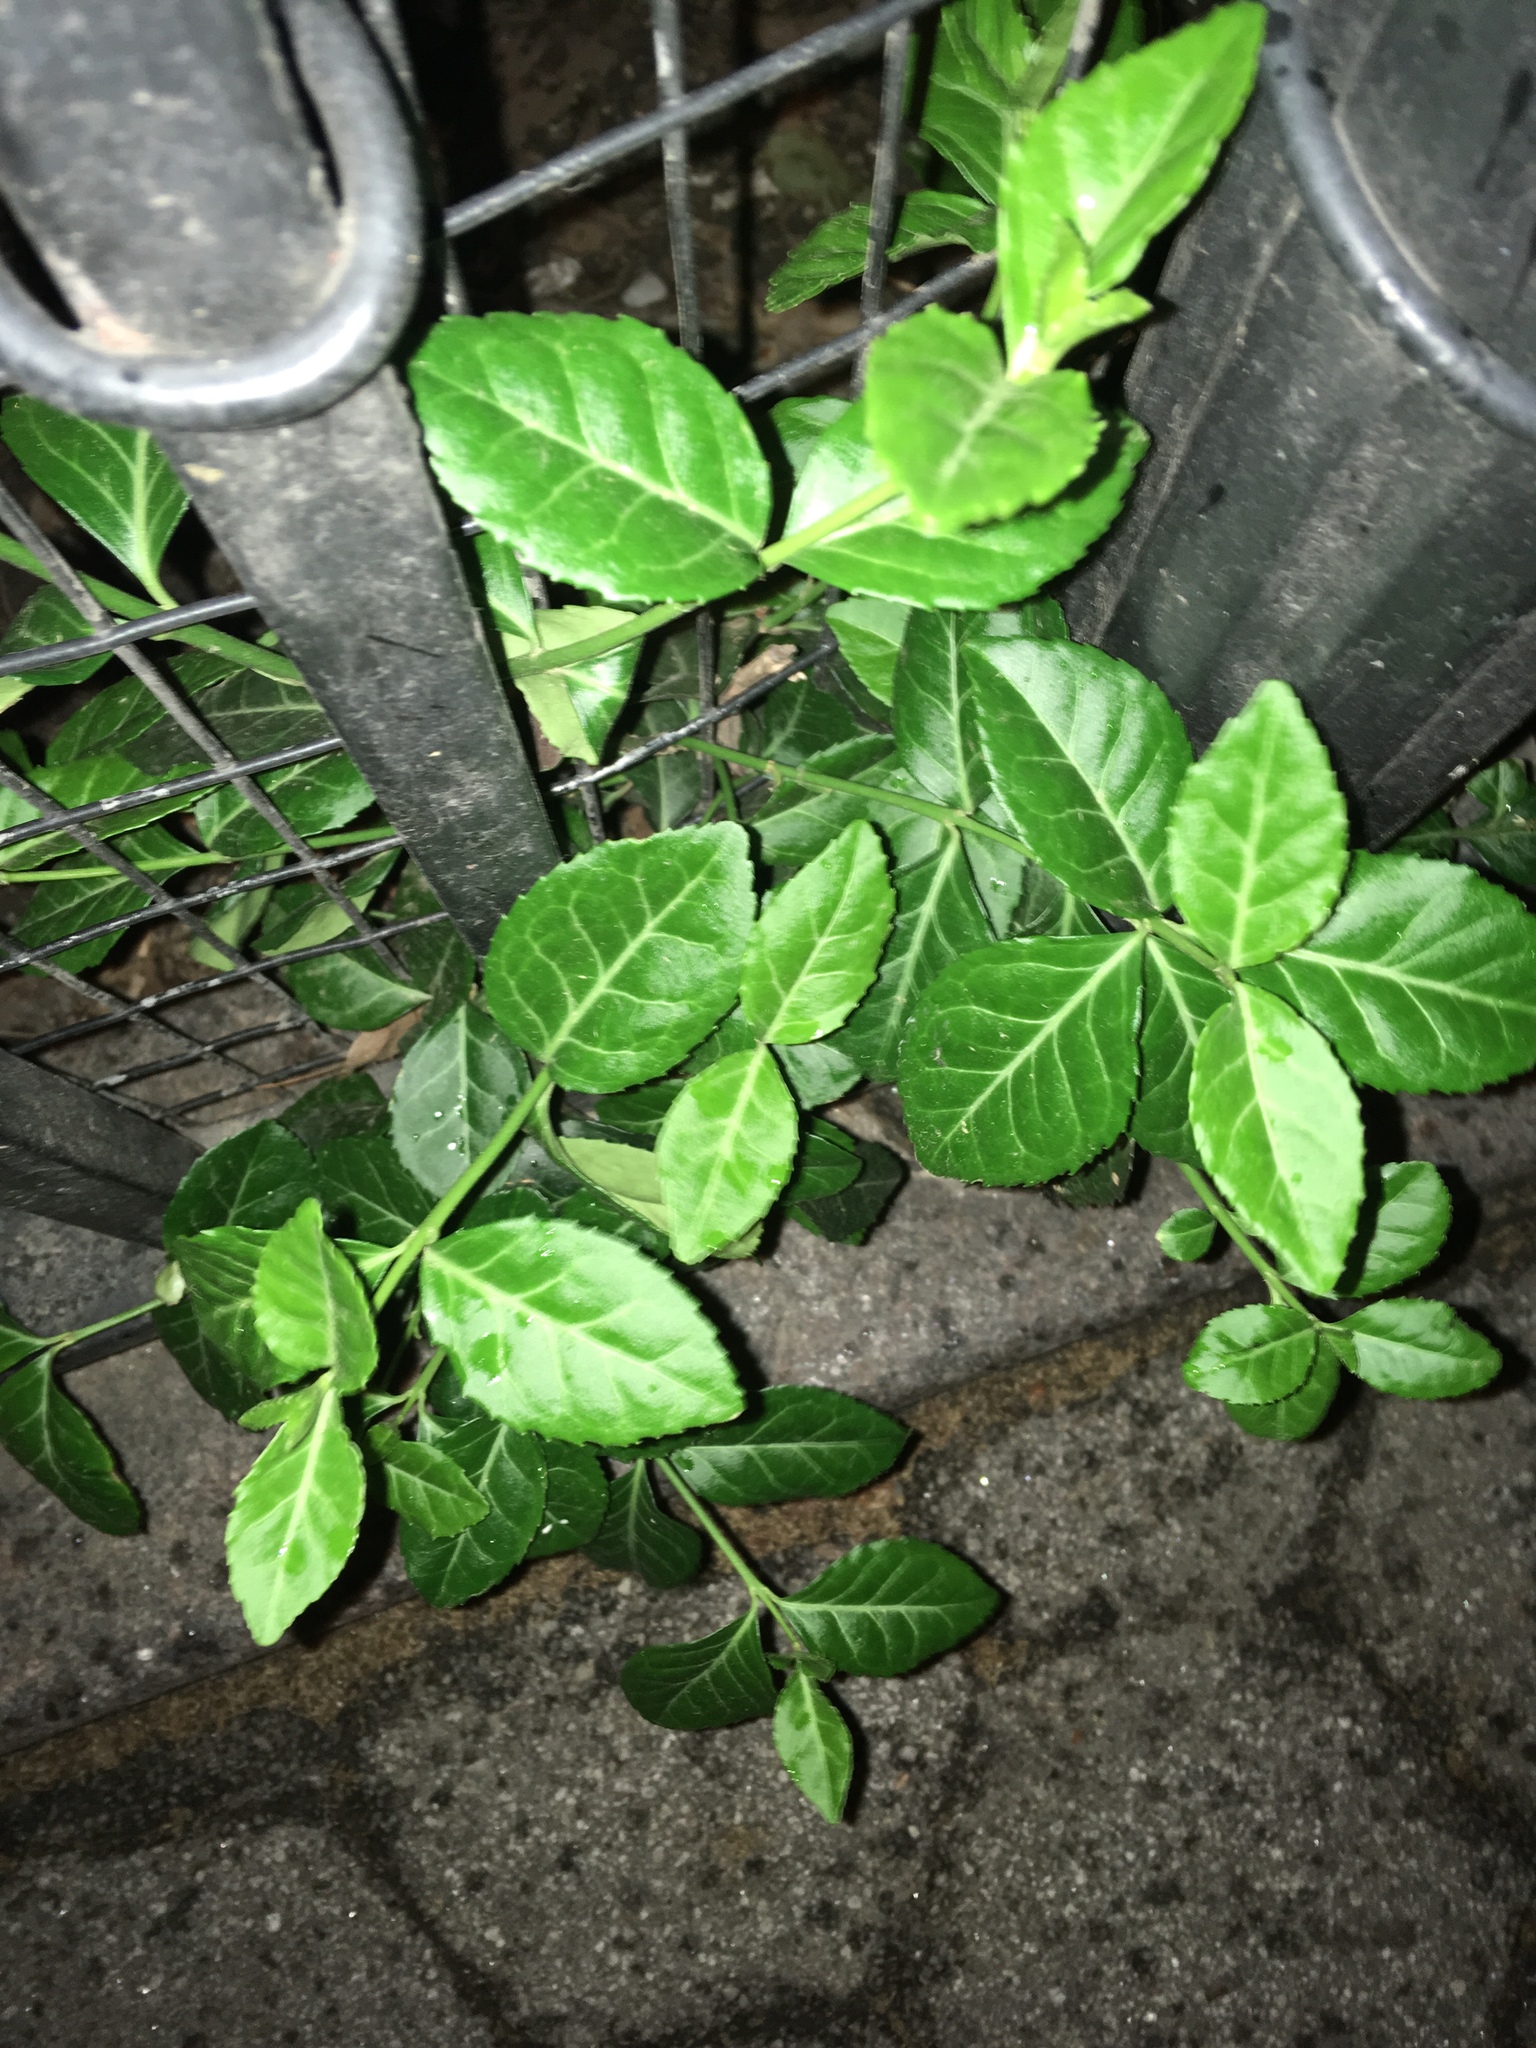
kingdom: Plantae
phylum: Tracheophyta
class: Magnoliopsida
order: Celastrales
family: Celastraceae
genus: Euonymus
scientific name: Euonymus fortunei
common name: Climbing euonymus
